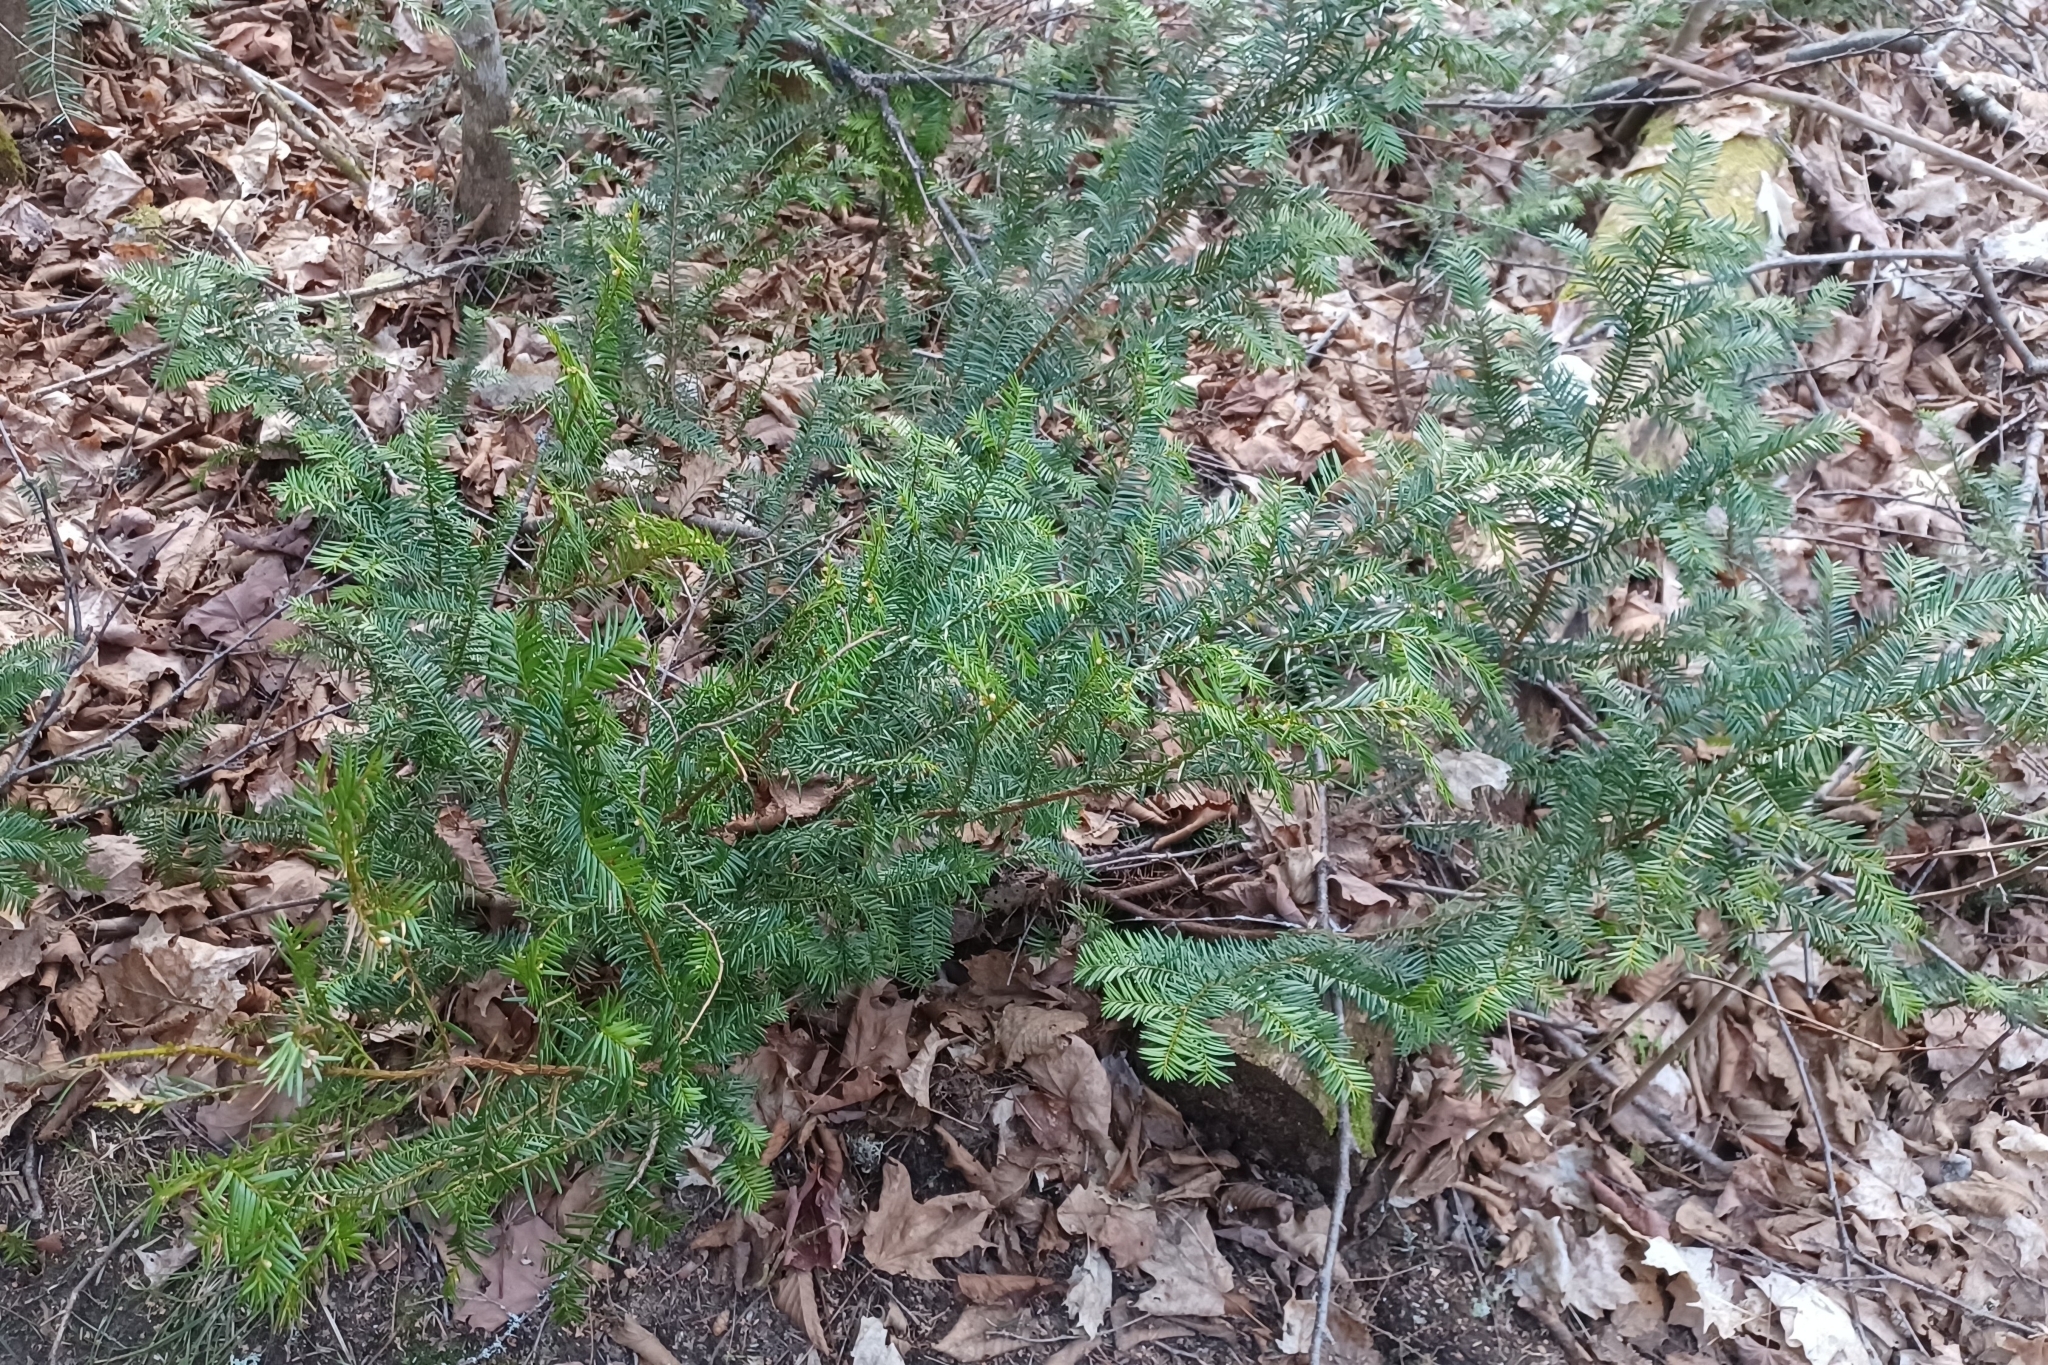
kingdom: Plantae
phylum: Tracheophyta
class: Pinopsida
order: Pinales
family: Taxaceae
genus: Taxus
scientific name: Taxus canadensis
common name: American yew
